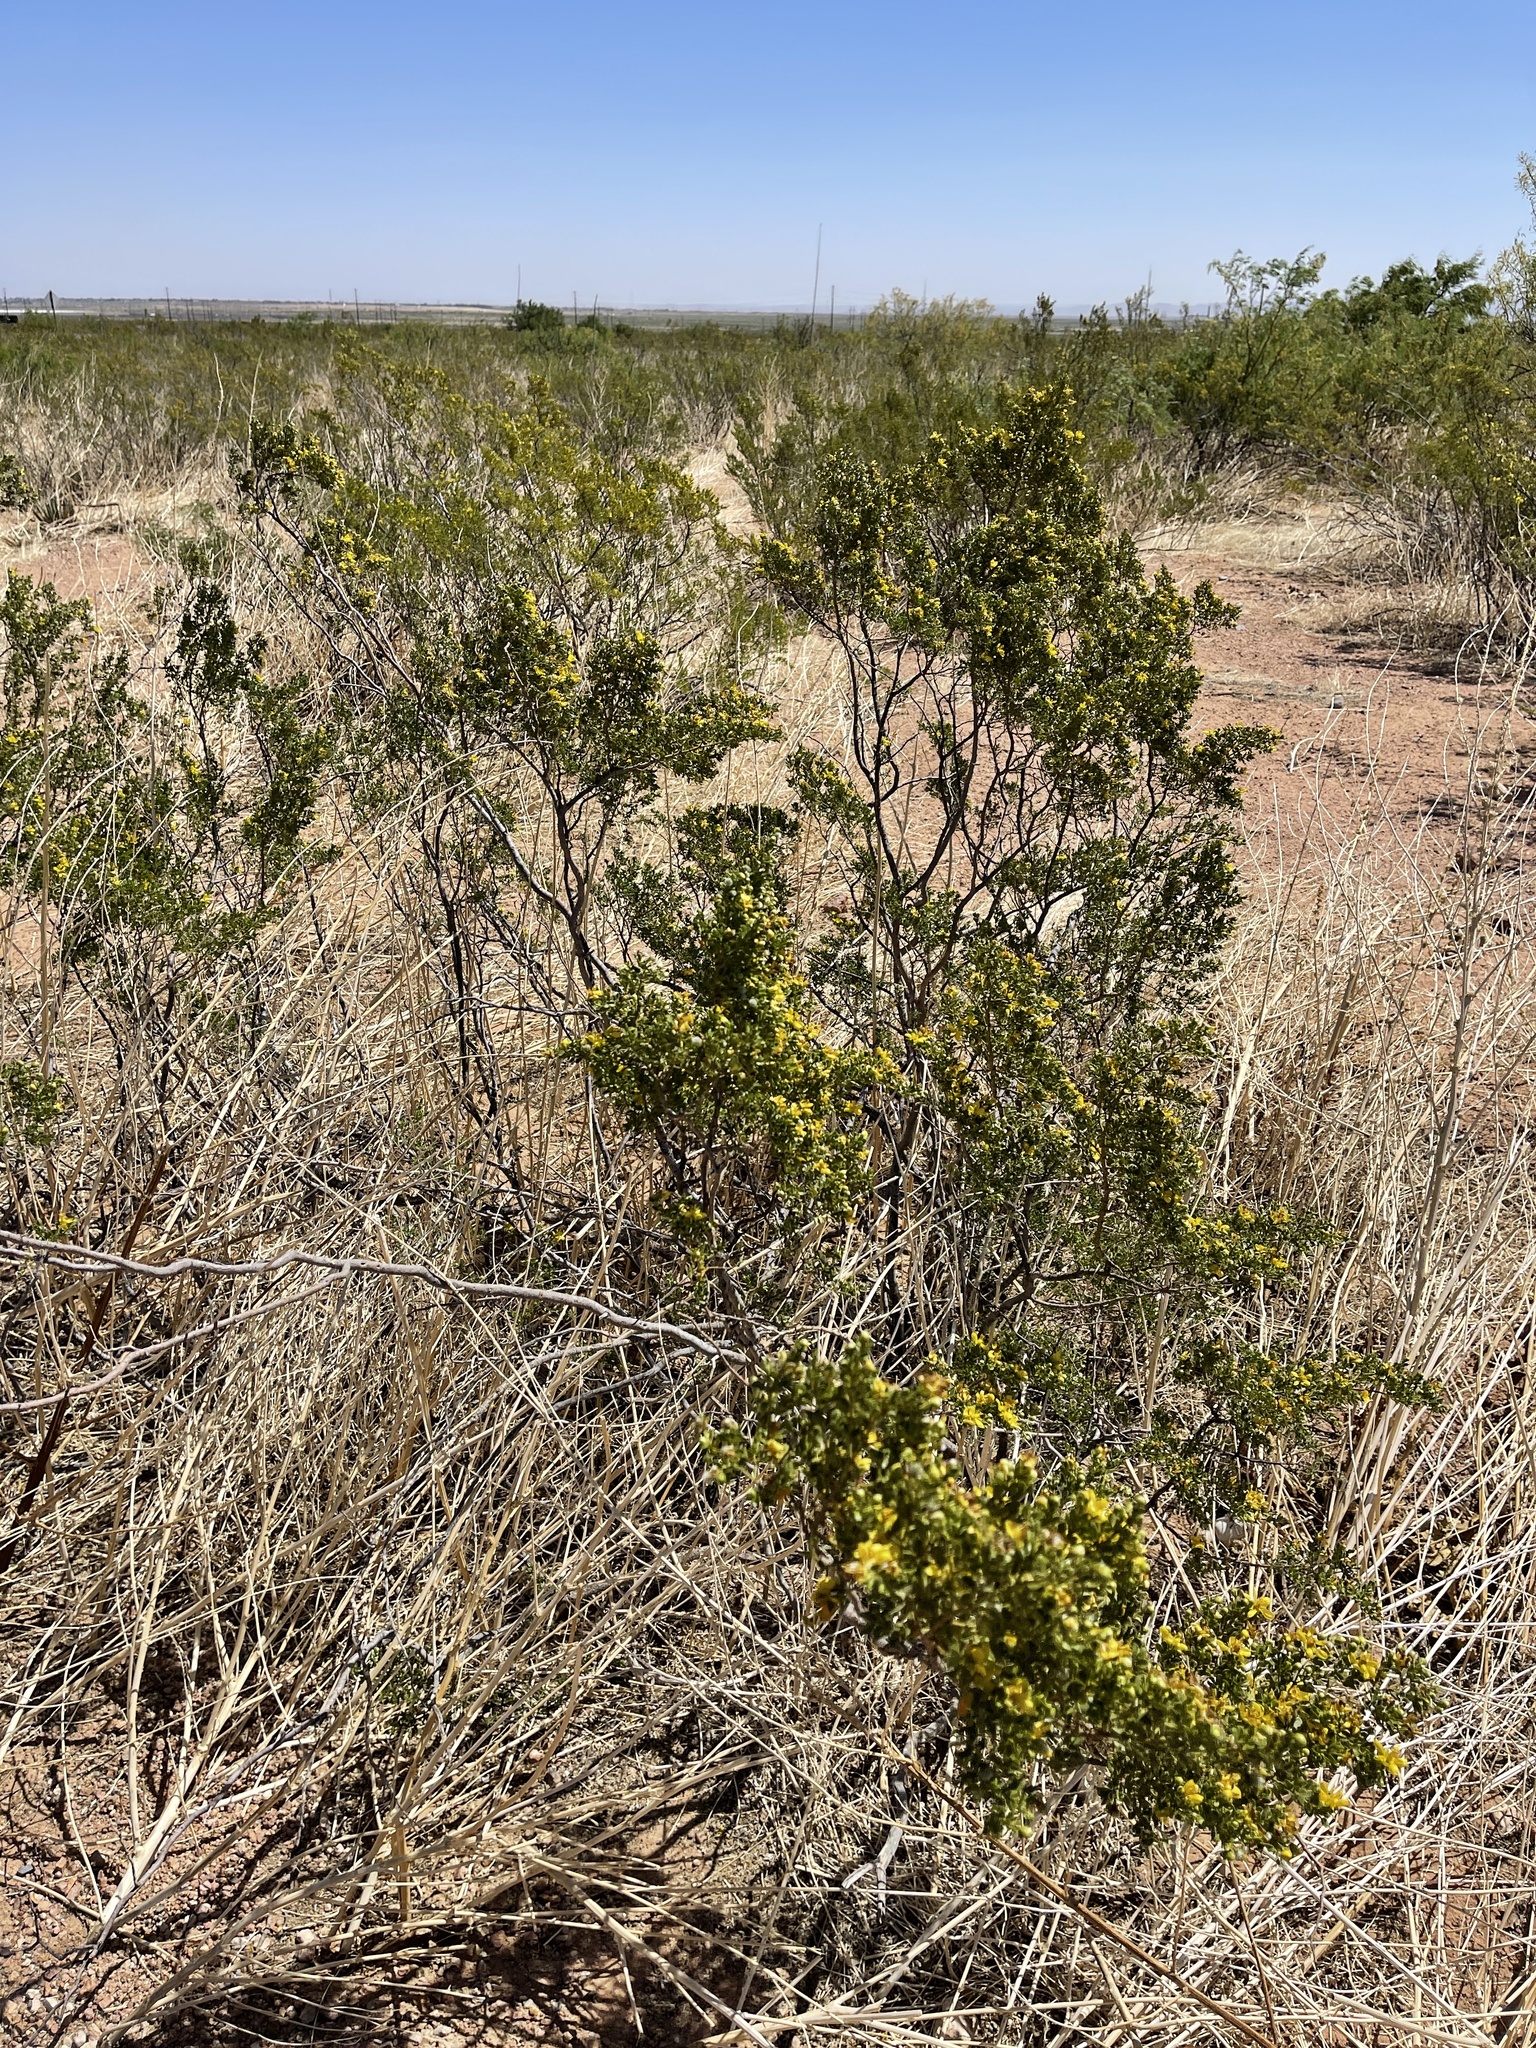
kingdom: Plantae
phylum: Tracheophyta
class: Magnoliopsida
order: Zygophyllales
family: Zygophyllaceae
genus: Larrea
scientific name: Larrea tridentata
